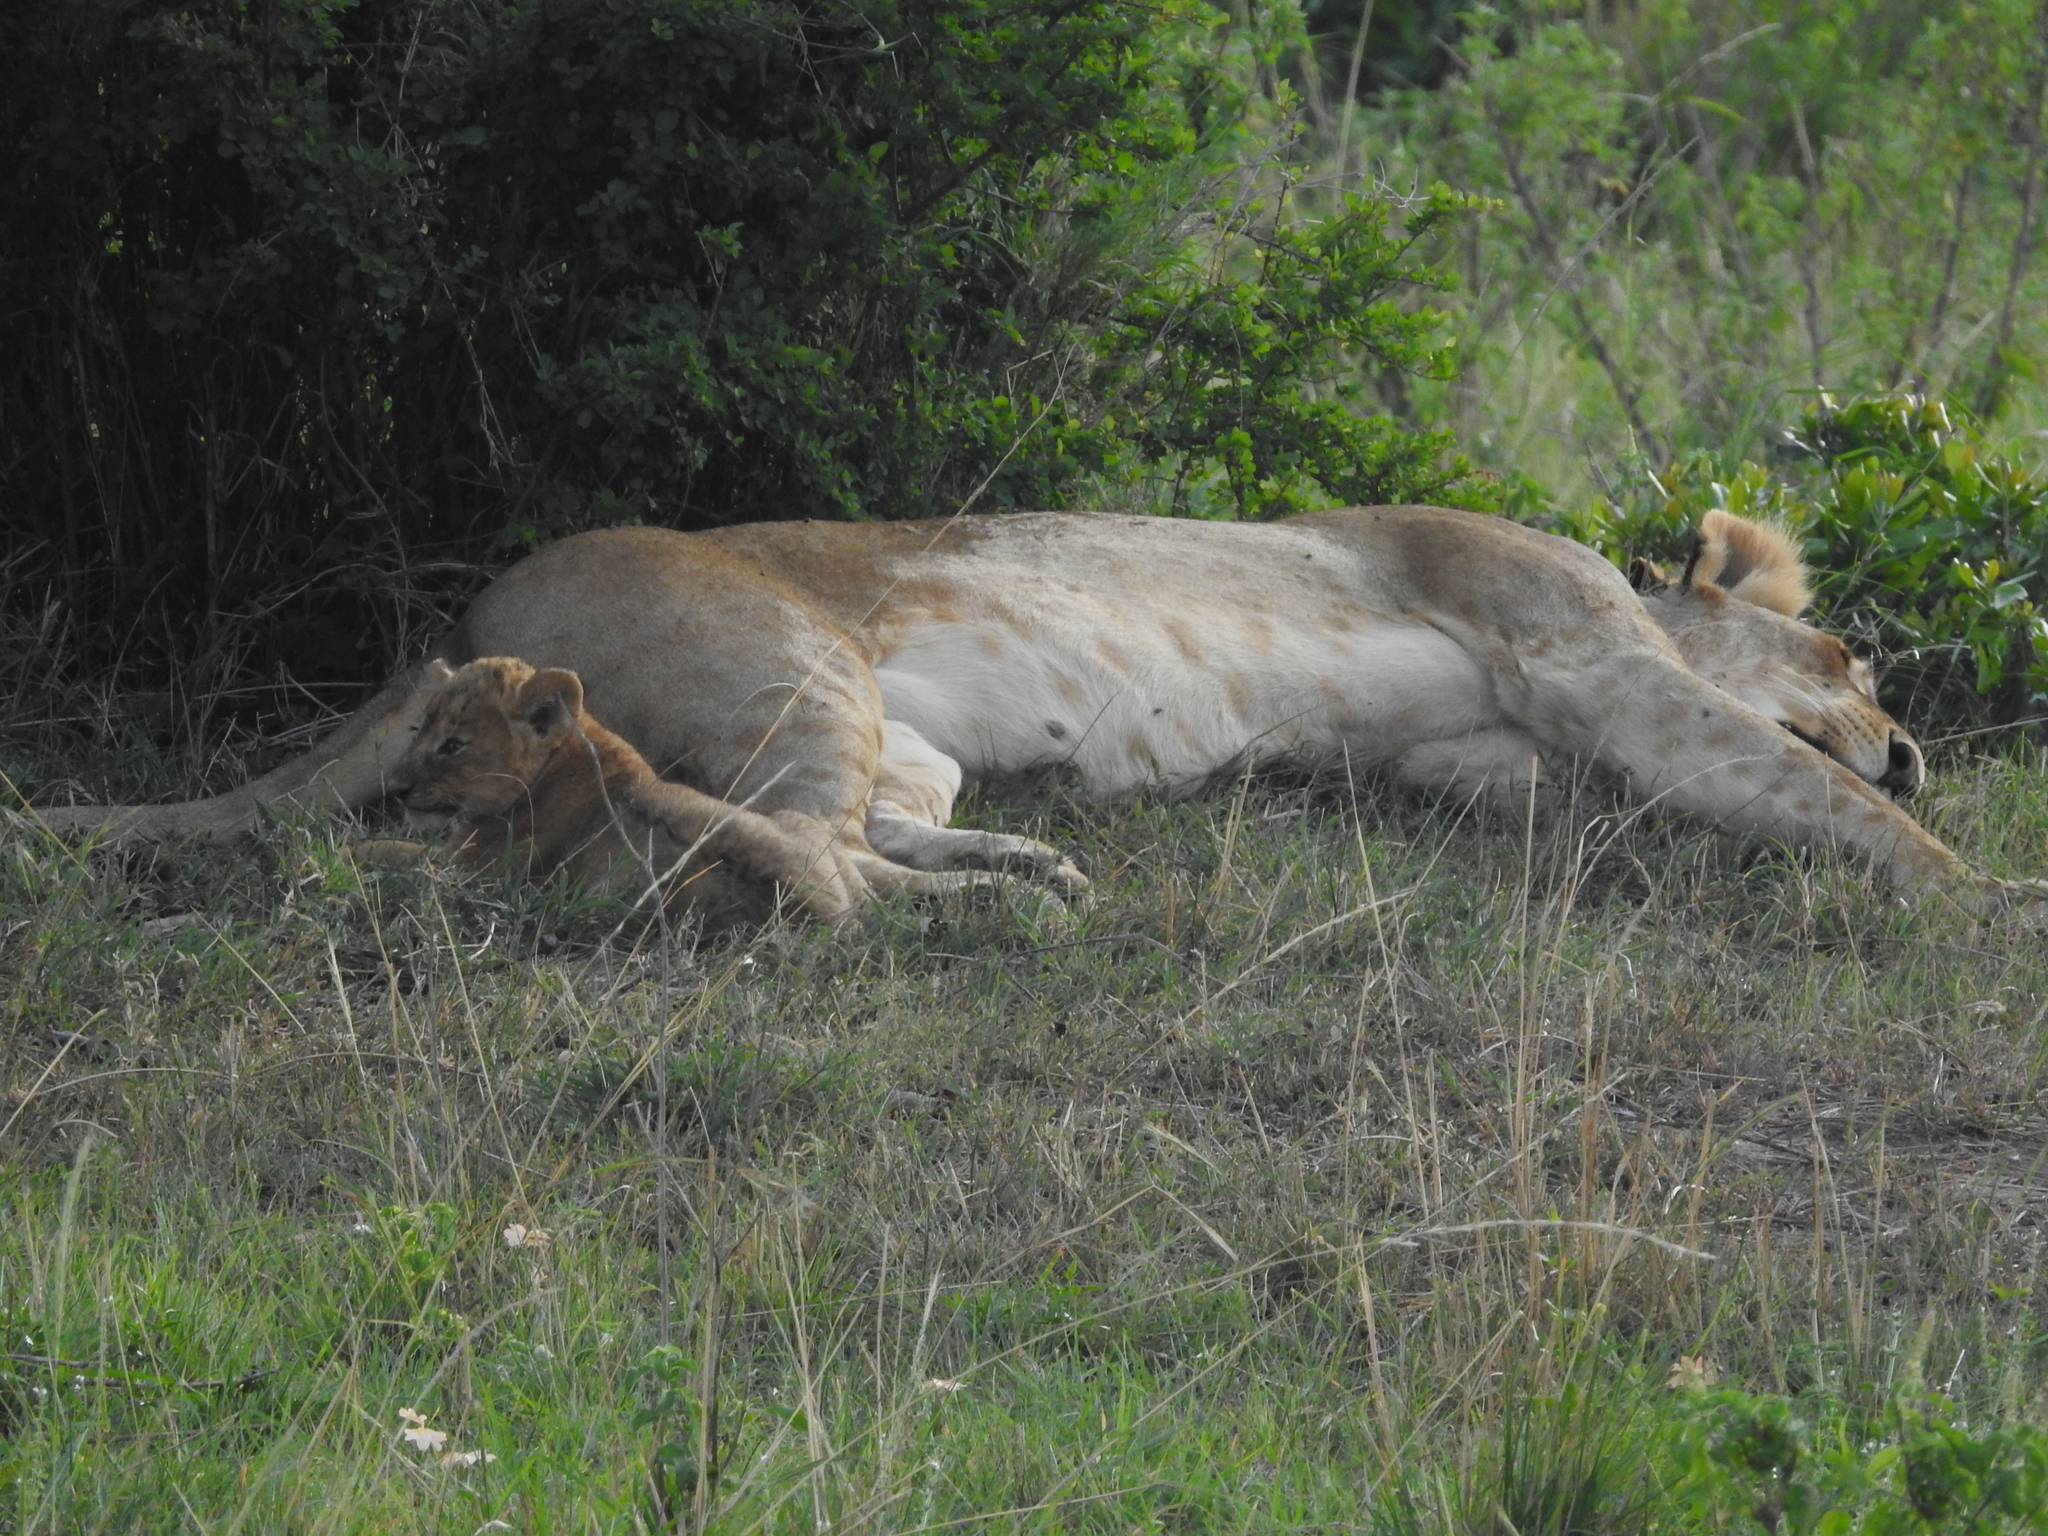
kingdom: Animalia
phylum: Chordata
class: Mammalia
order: Carnivora
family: Felidae
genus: Panthera
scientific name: Panthera leo
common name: Lion
